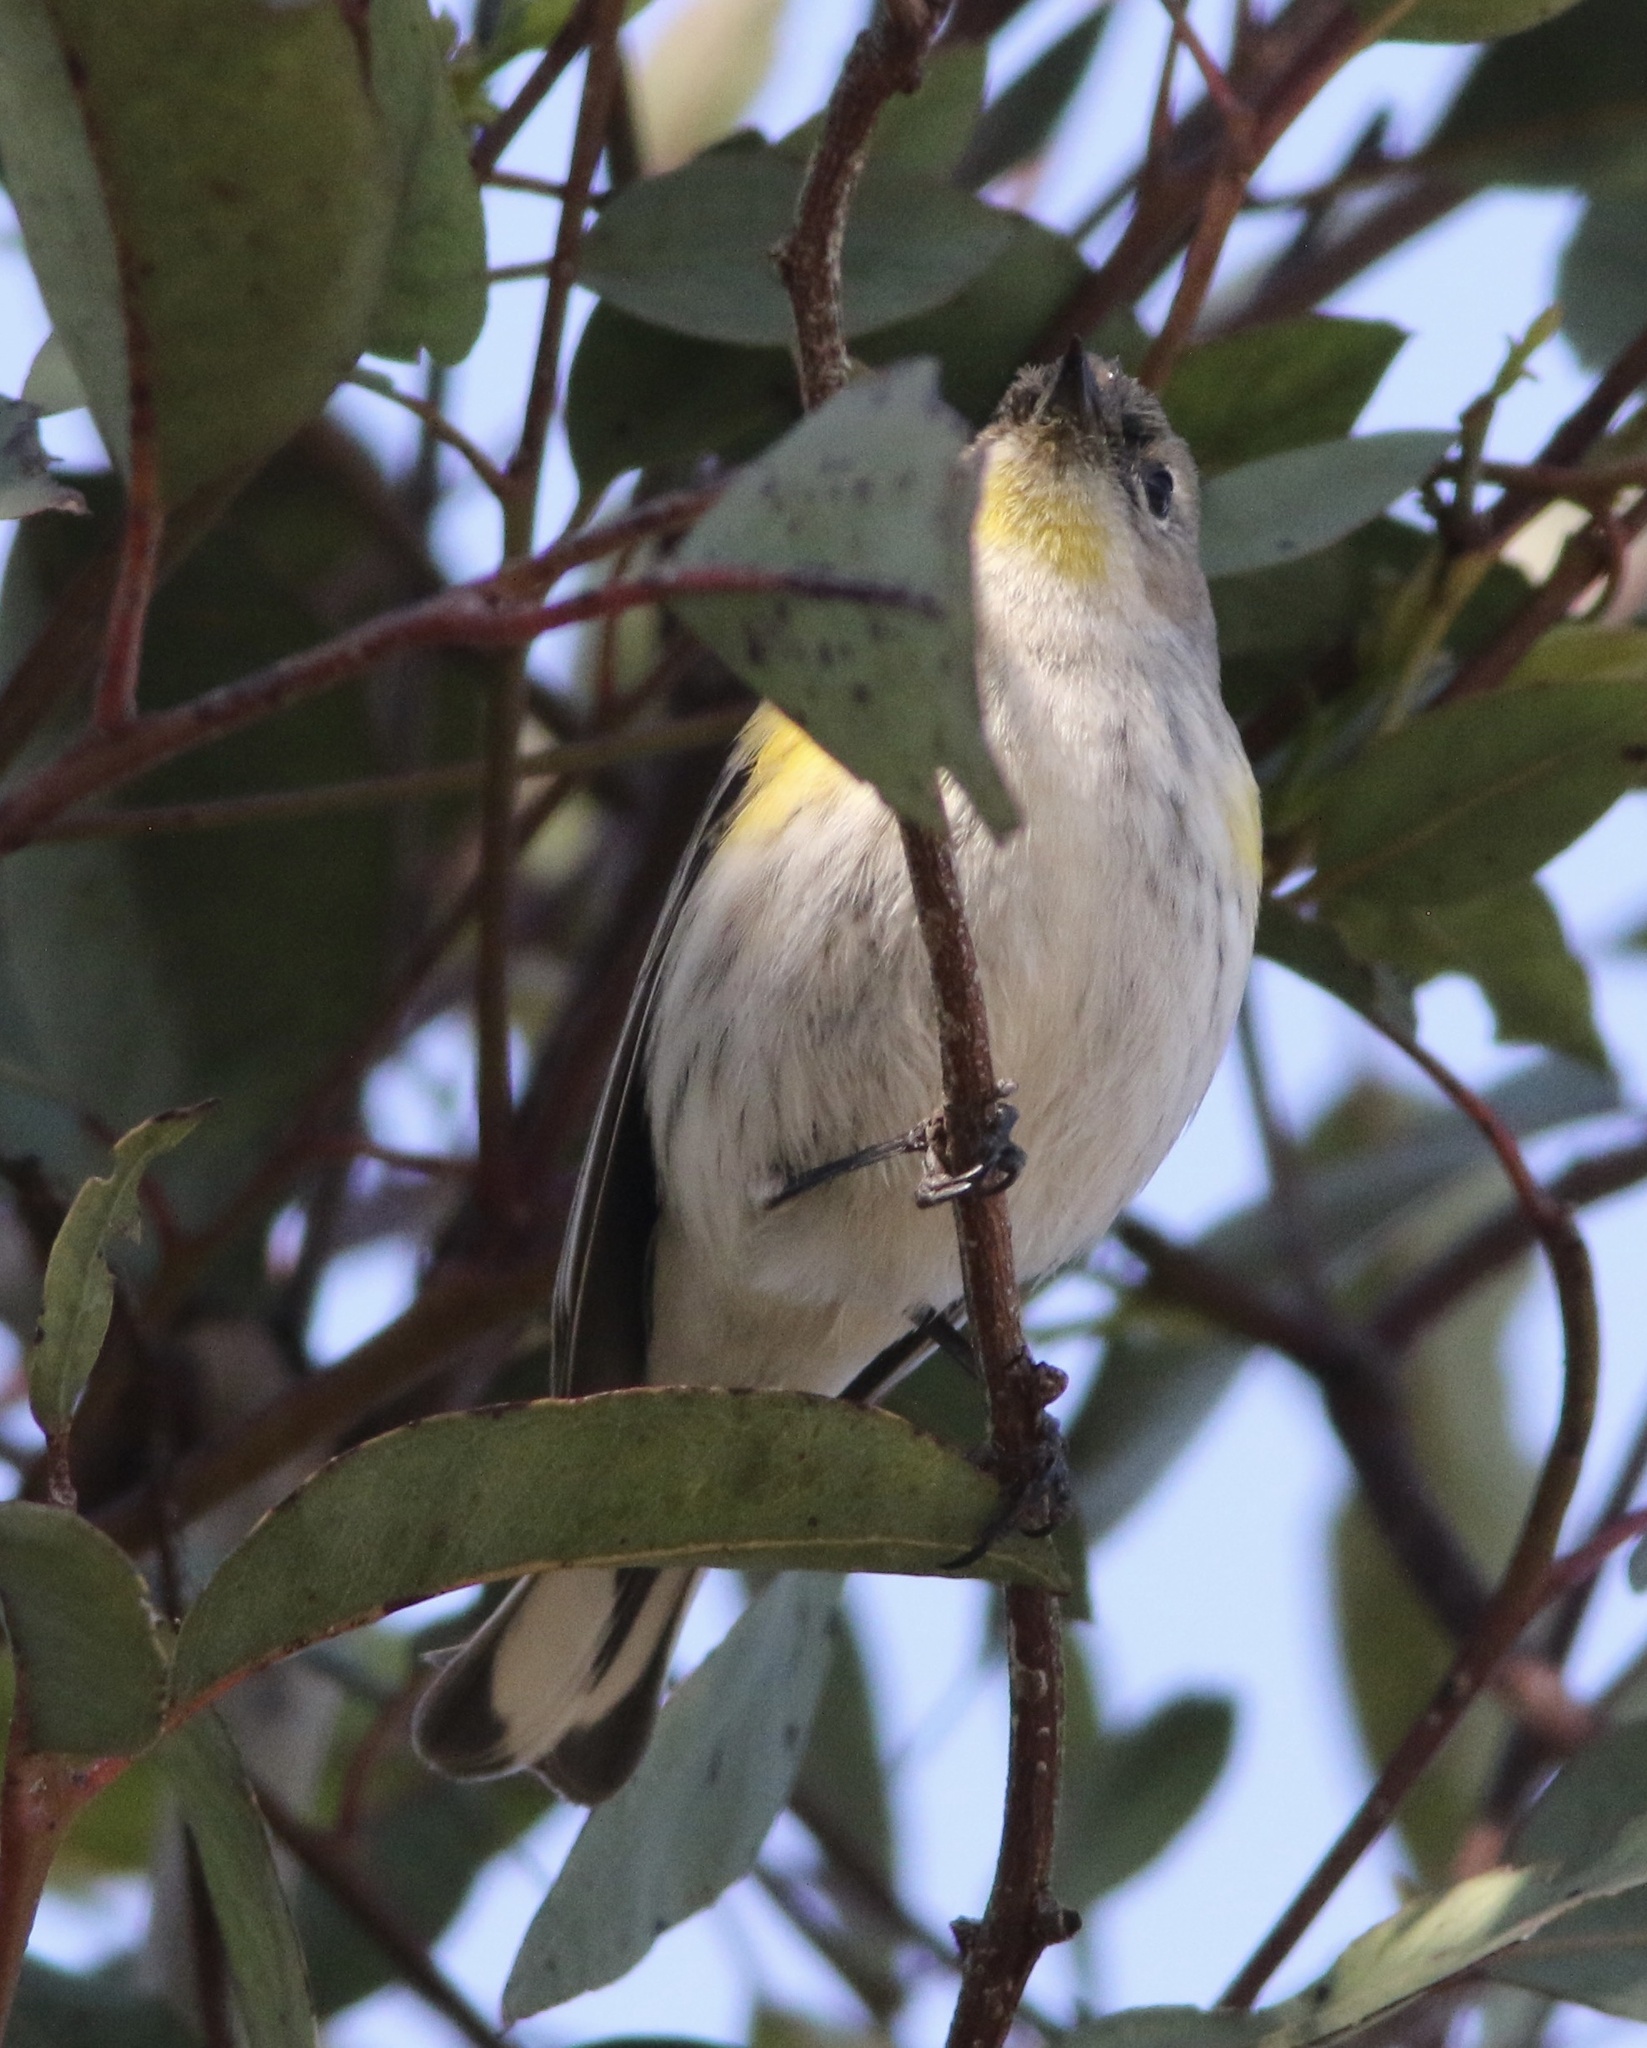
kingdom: Animalia
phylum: Chordata
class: Aves
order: Passeriformes
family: Parulidae
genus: Setophaga
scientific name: Setophaga coronata
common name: Myrtle warbler
